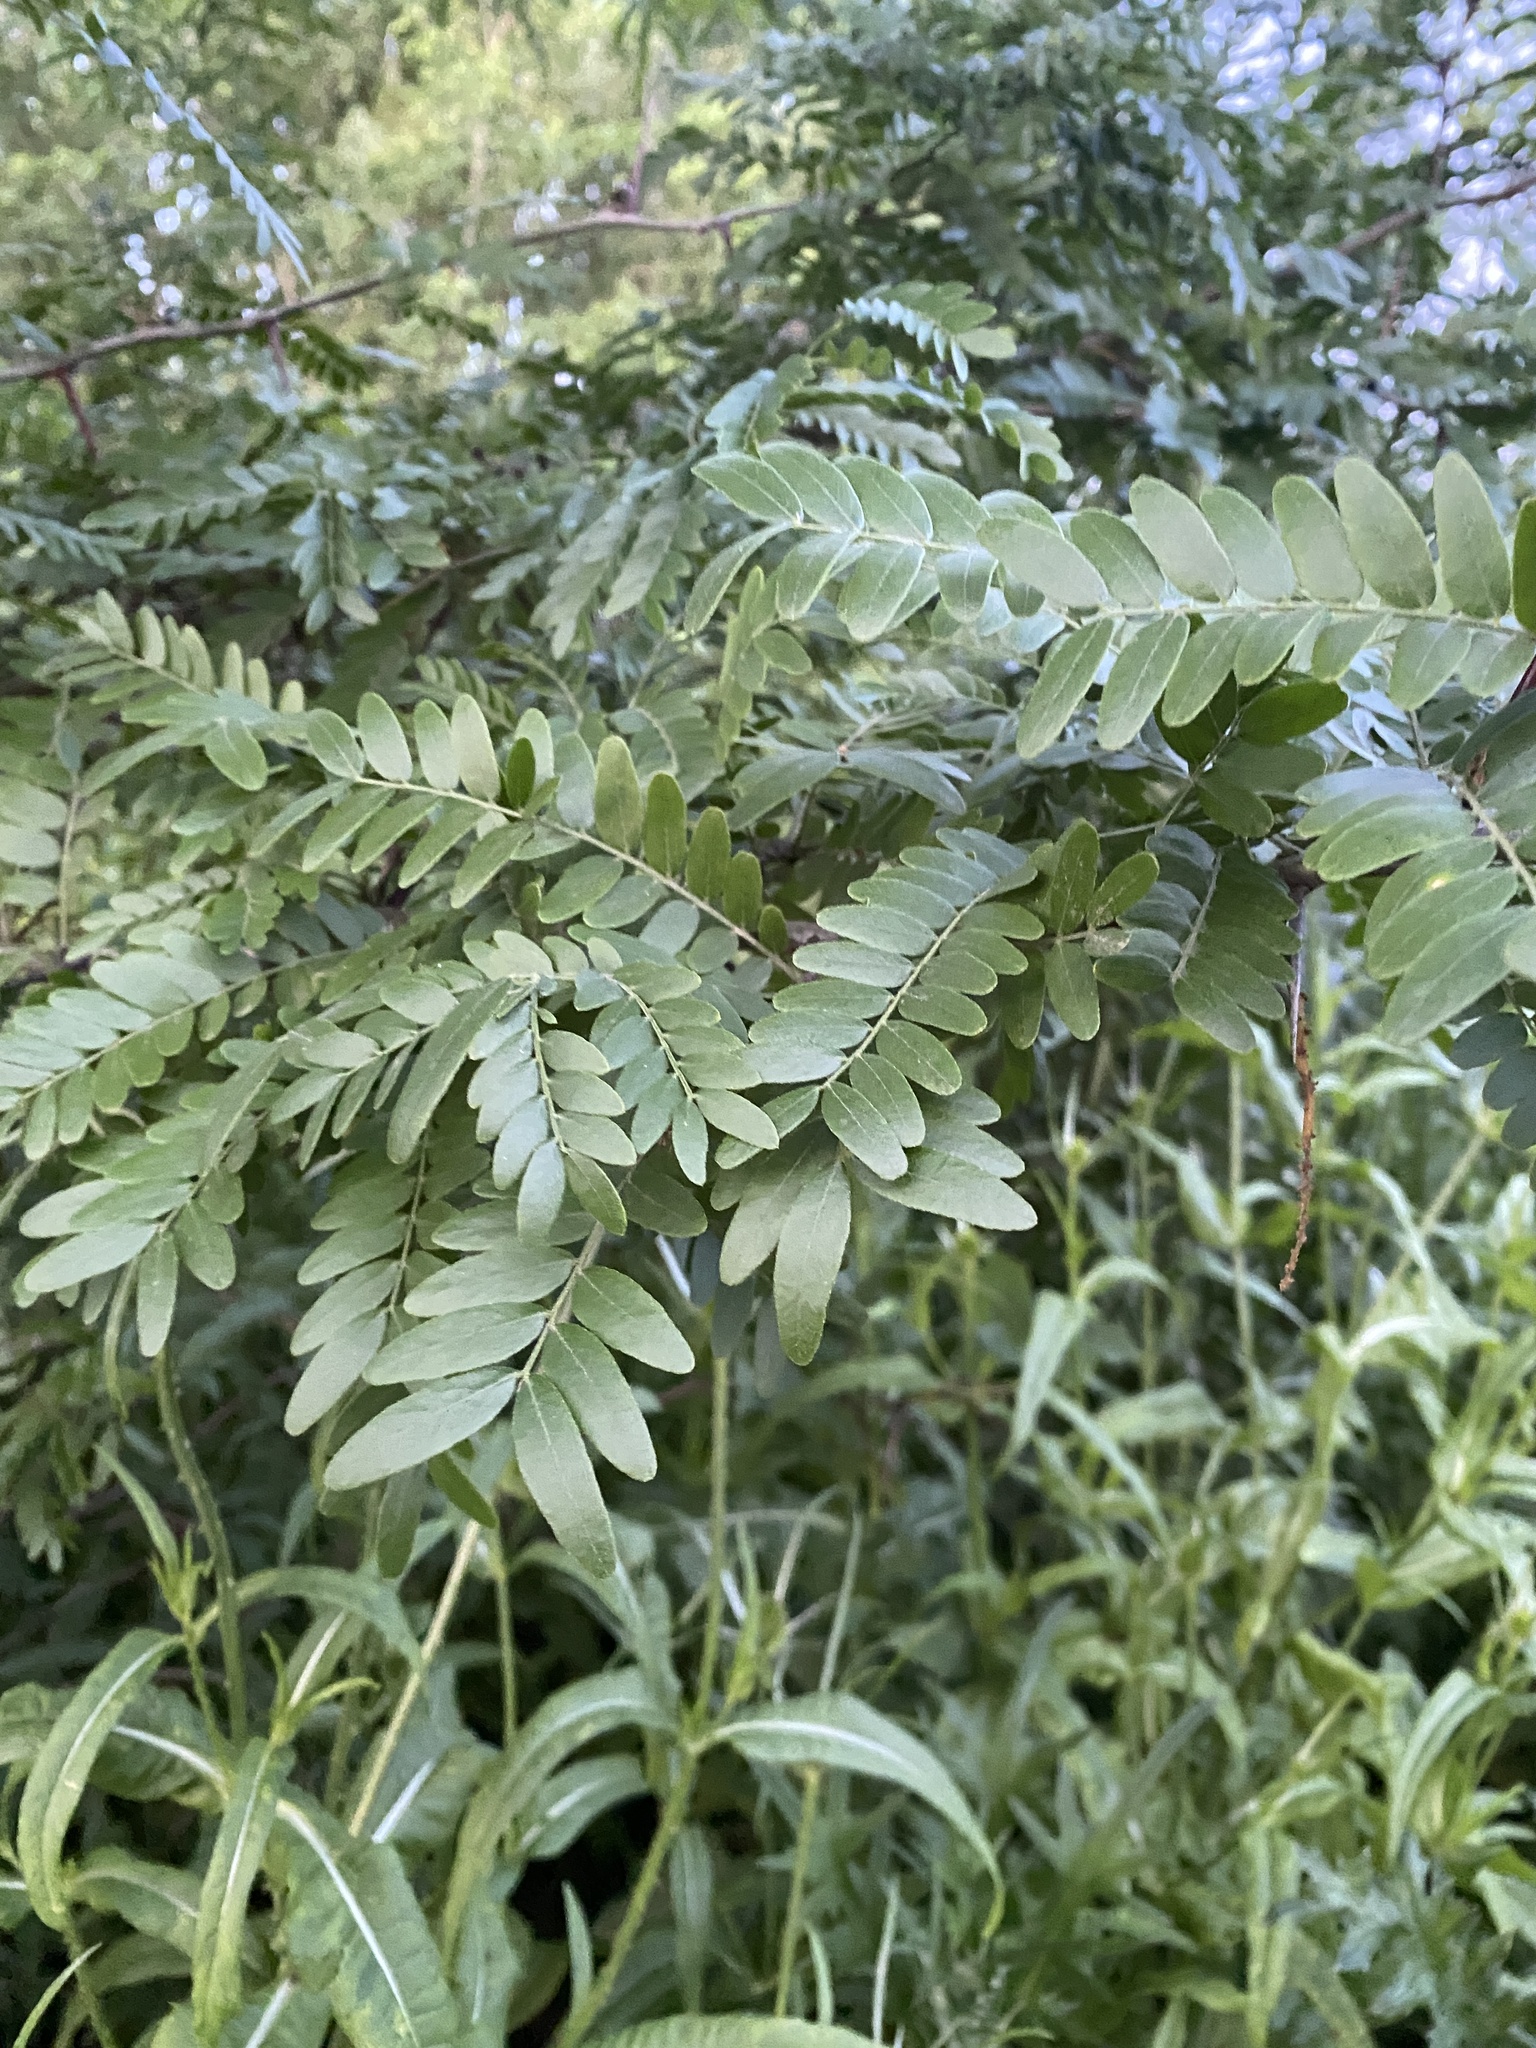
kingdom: Plantae
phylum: Tracheophyta
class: Magnoliopsida
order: Fabales
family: Fabaceae
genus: Gleditsia
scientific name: Gleditsia triacanthos
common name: Common honeylocust
